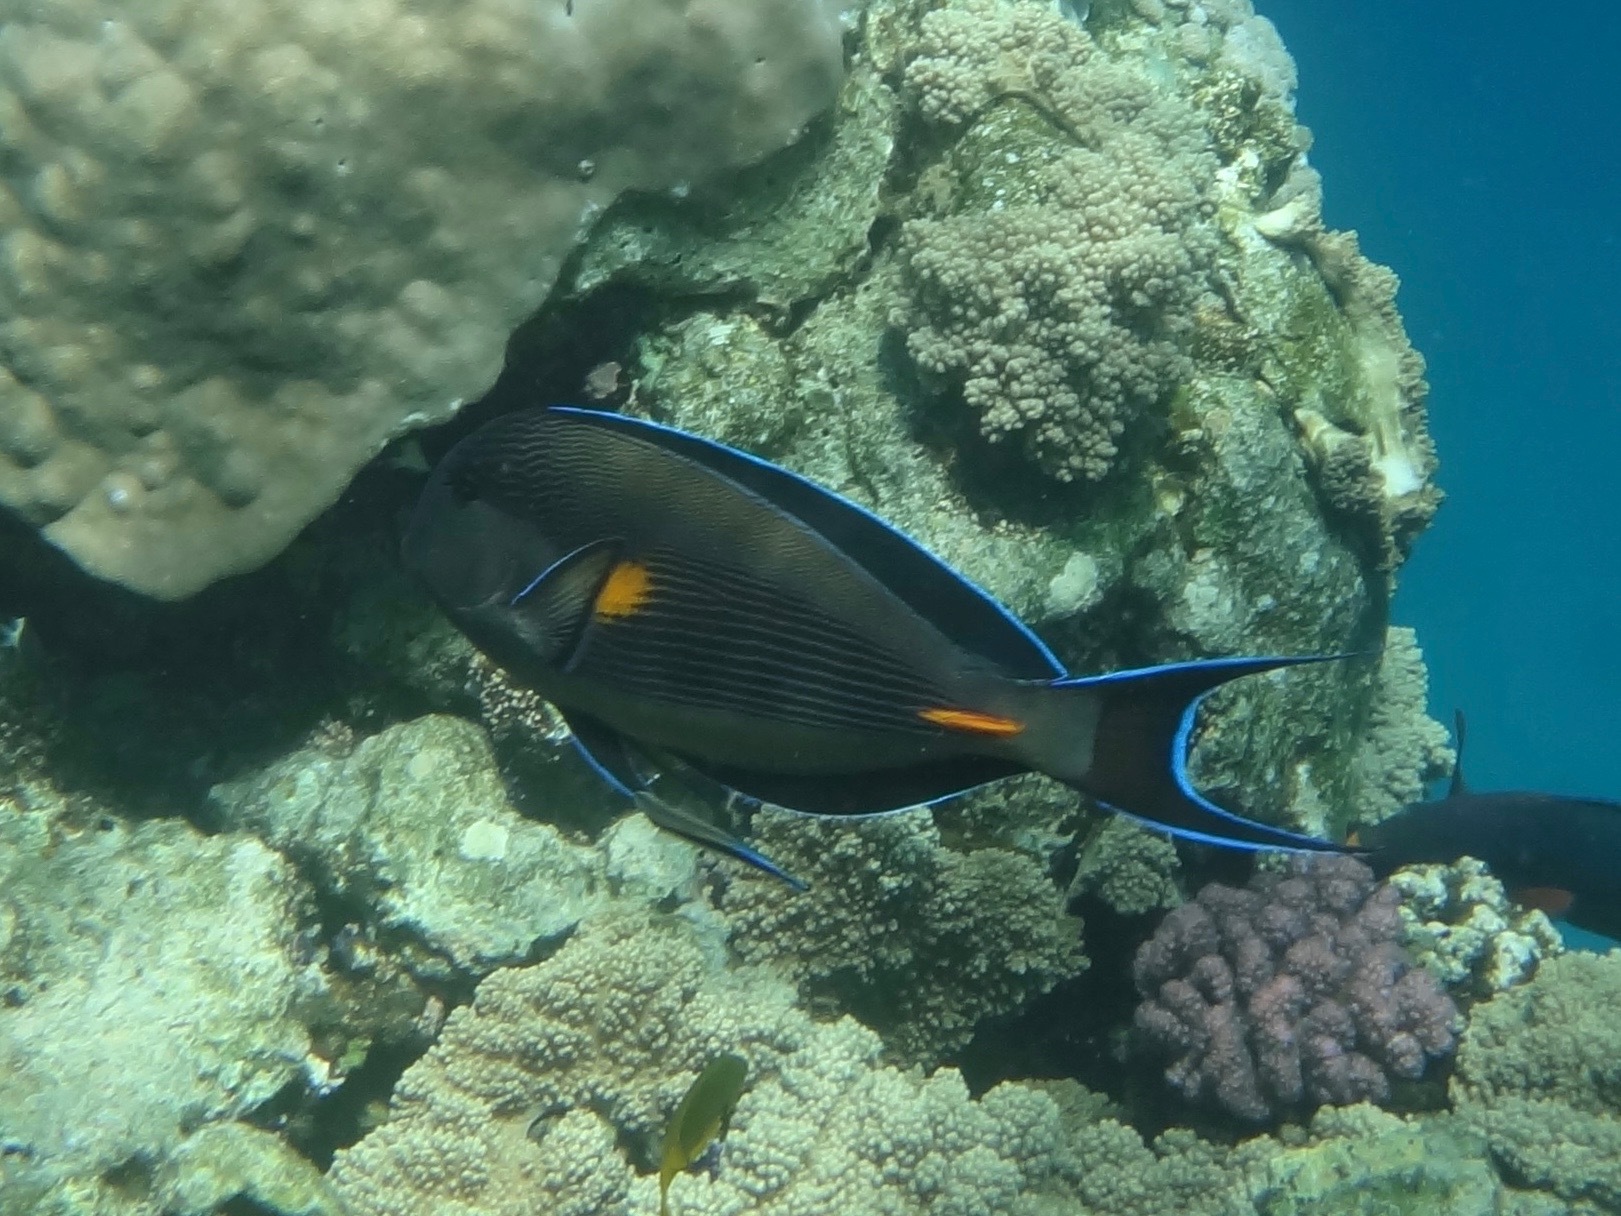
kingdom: Animalia
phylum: Chordata
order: Perciformes
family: Acanthuridae
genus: Acanthurus
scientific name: Acanthurus sohal
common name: Red sea surgeonfish
